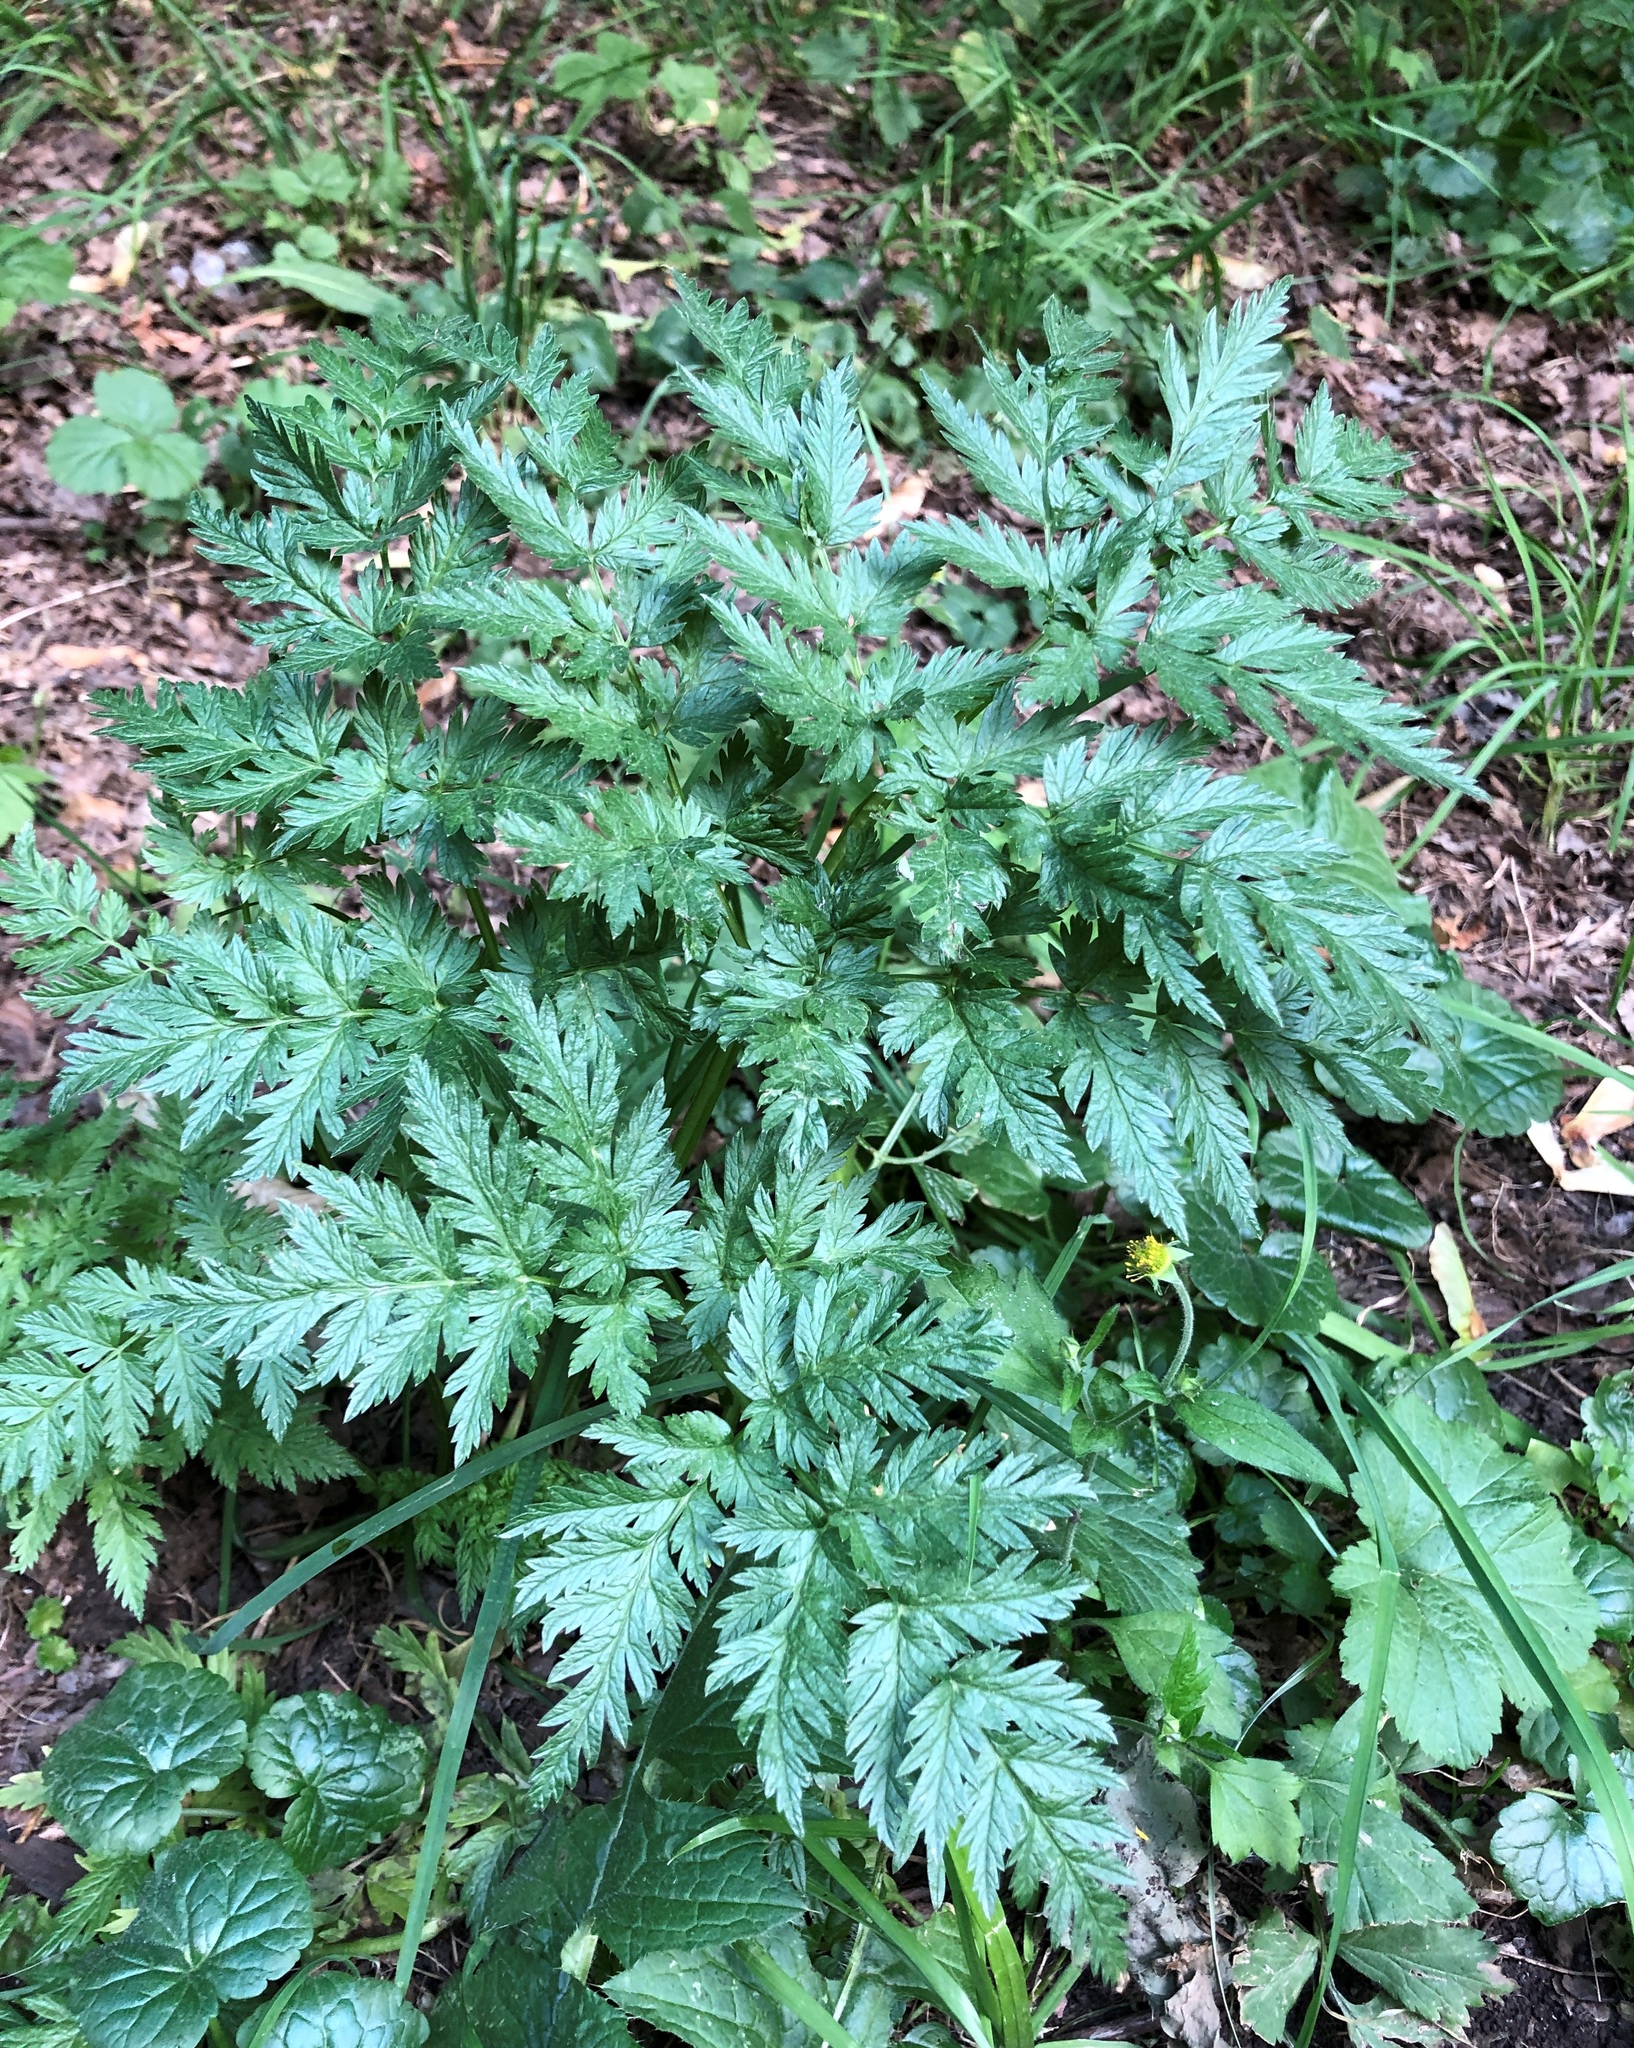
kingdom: Plantae
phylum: Tracheophyta
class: Magnoliopsida
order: Apiales
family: Apiaceae
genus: Anthriscus
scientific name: Anthriscus sylvestris
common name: Cow parsley
